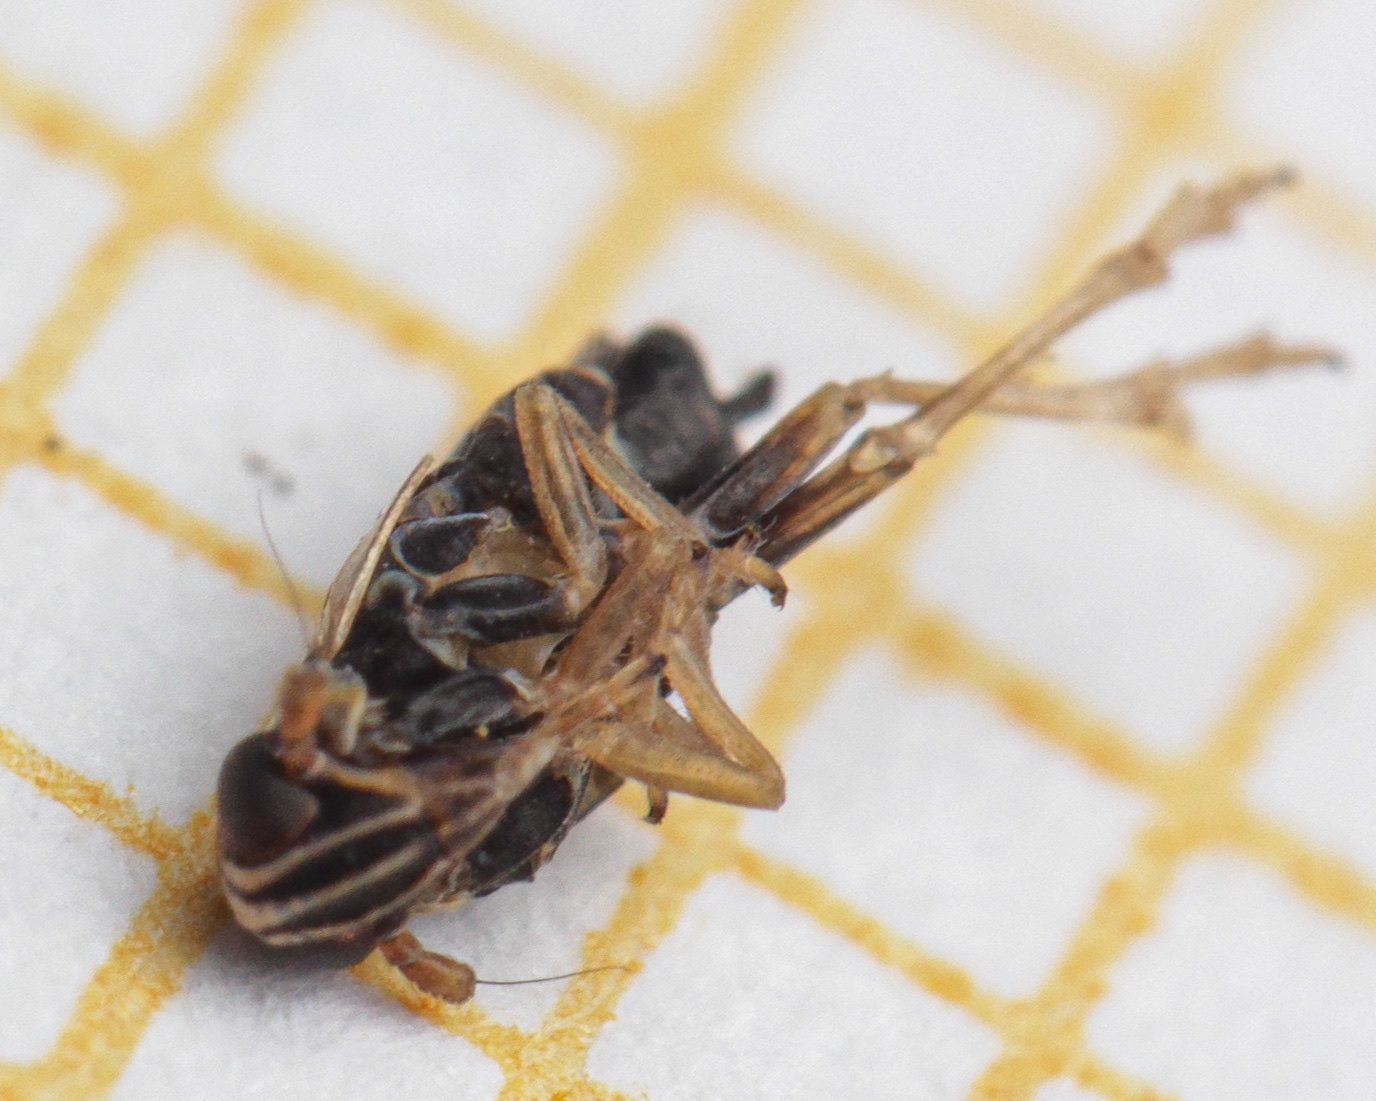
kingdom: Animalia
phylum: Arthropoda
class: Insecta
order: Hemiptera
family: Delphacidae
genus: Hyledelphax
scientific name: Hyledelphax elegantulus
